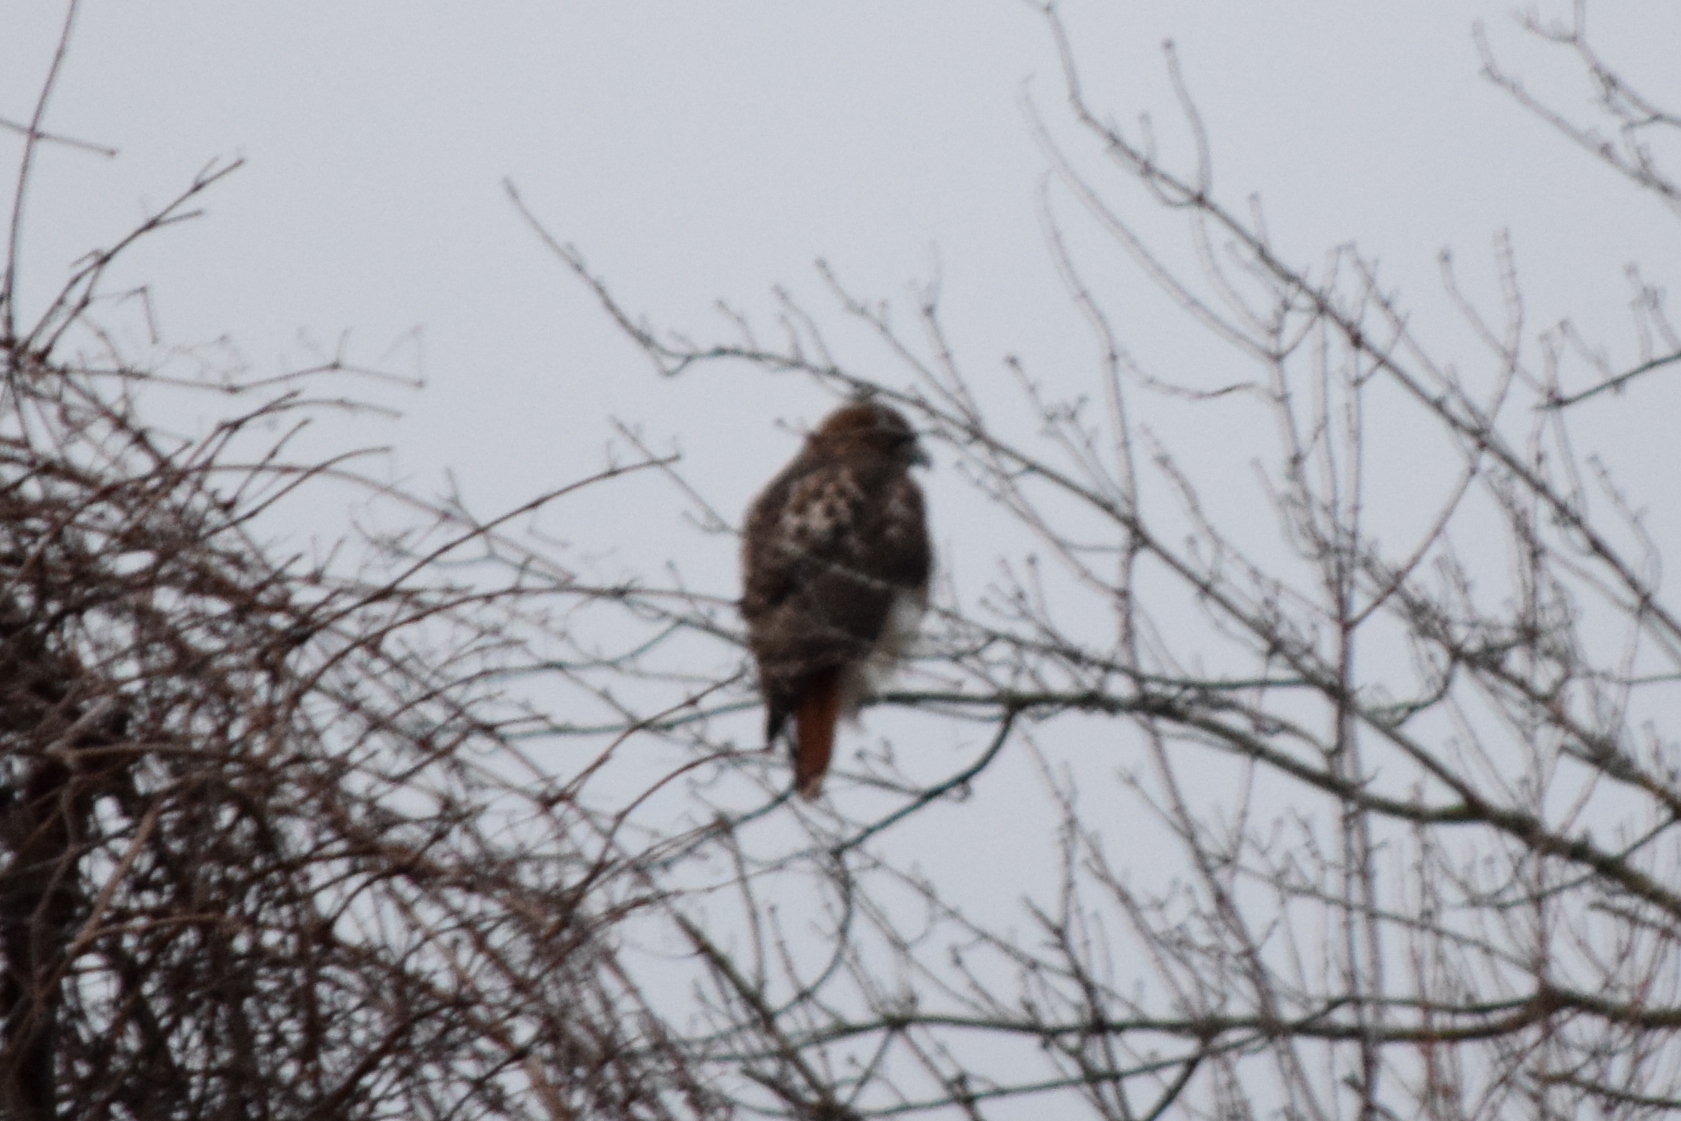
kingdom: Animalia
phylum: Chordata
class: Aves
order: Accipitriformes
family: Accipitridae
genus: Buteo
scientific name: Buteo jamaicensis
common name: Red-tailed hawk
